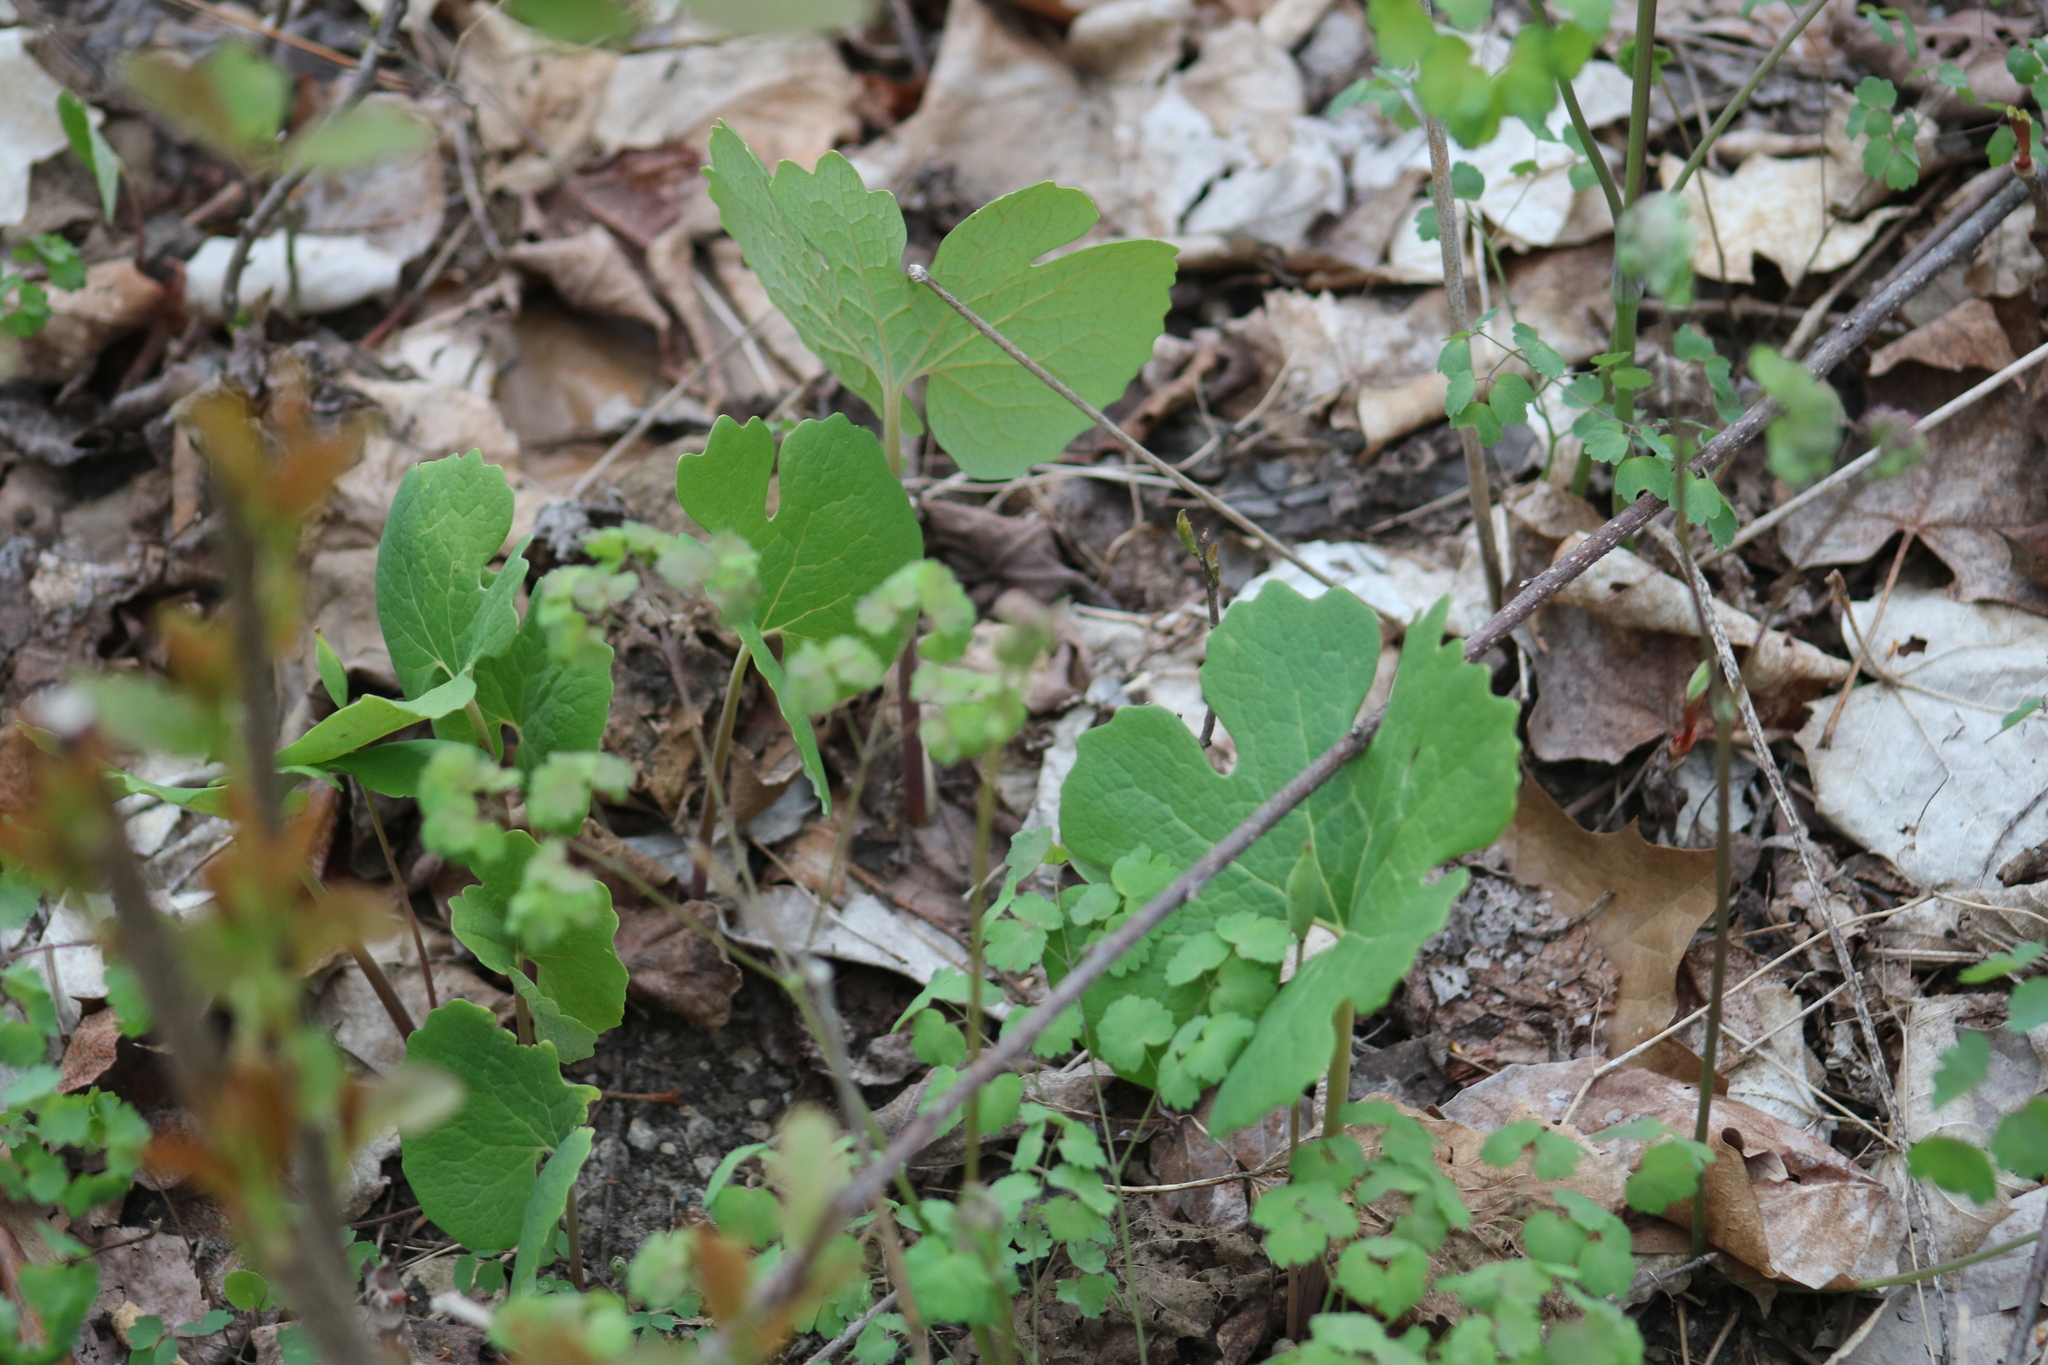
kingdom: Plantae
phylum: Tracheophyta
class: Magnoliopsida
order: Ranunculales
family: Papaveraceae
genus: Sanguinaria
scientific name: Sanguinaria canadensis
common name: Bloodroot
